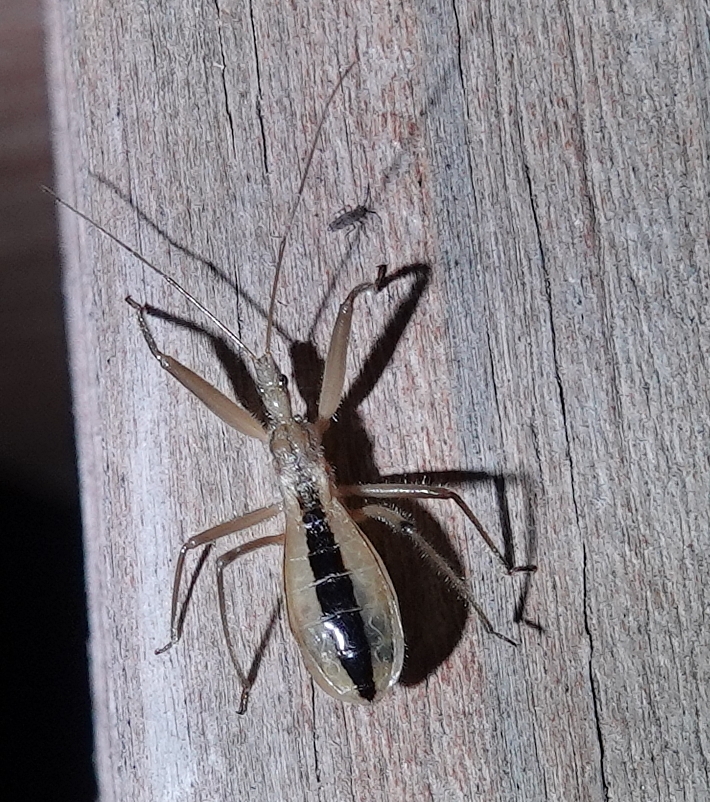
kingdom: Animalia
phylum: Arthropoda
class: Insecta
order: Hemiptera
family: Reduviidae
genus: Fitchia
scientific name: Fitchia aptera
